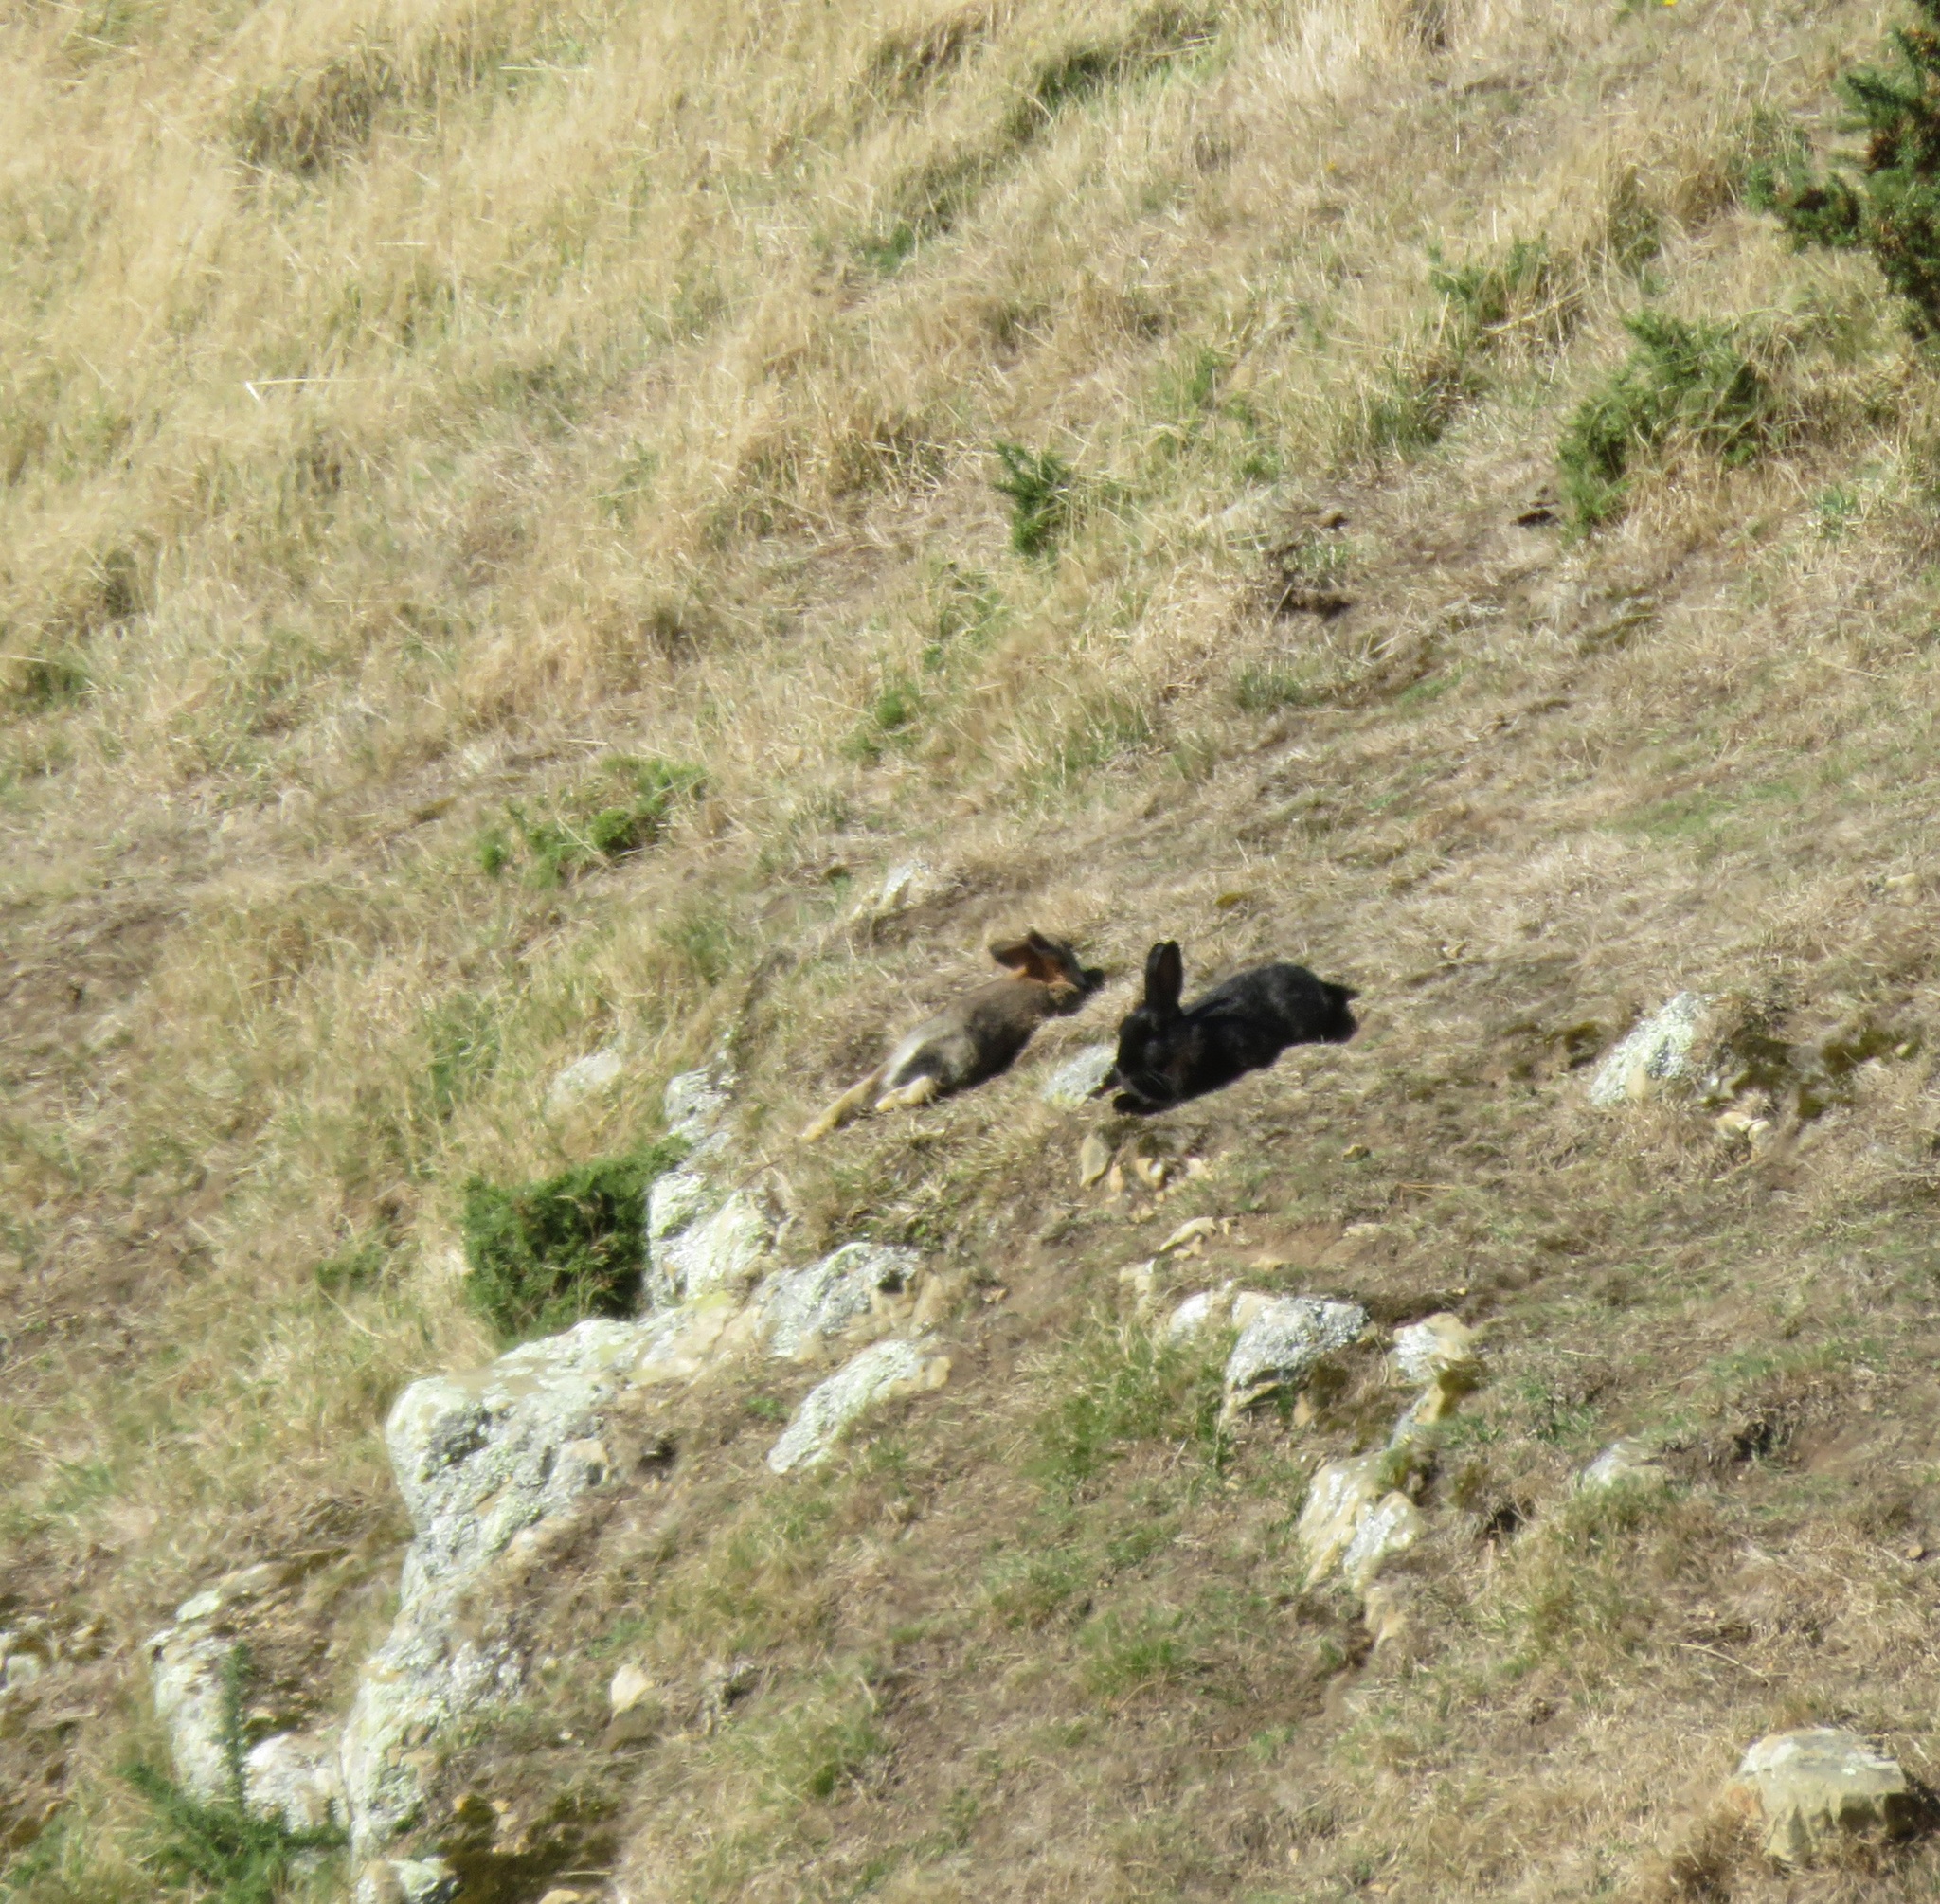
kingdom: Animalia
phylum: Chordata
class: Mammalia
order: Lagomorpha
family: Leporidae
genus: Oryctolagus
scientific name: Oryctolagus cuniculus
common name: European rabbit
